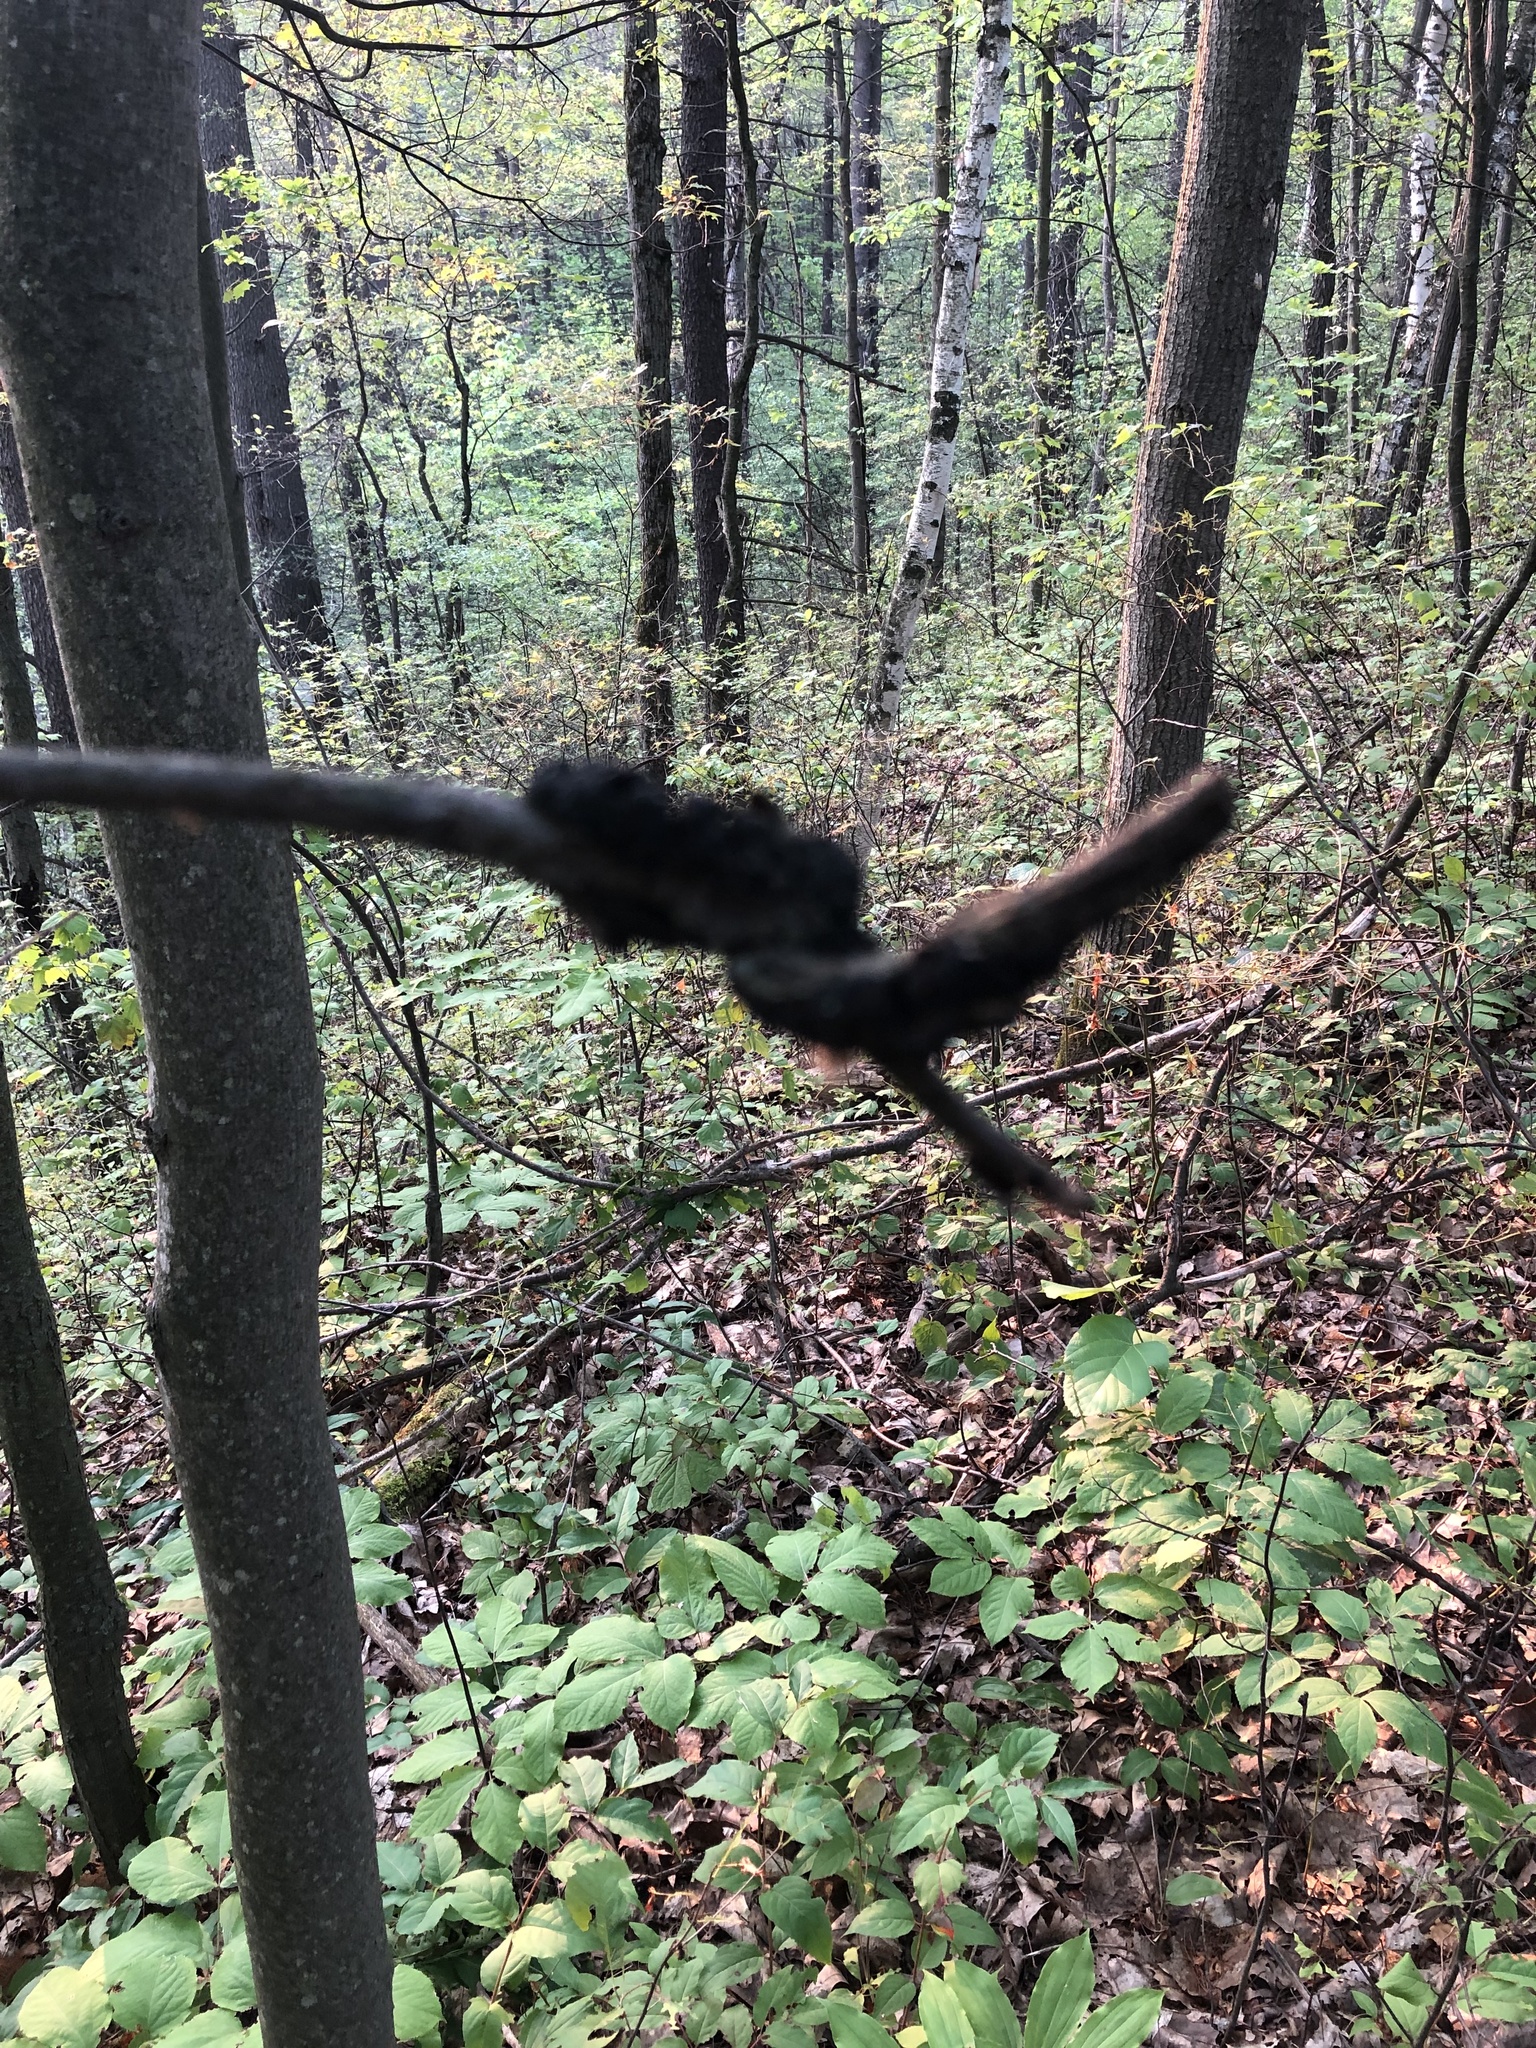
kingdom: Fungi
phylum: Ascomycota
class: Dothideomycetes
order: Venturiales
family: Venturiaceae
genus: Apiosporina
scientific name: Apiosporina morbosa
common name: Black knot
